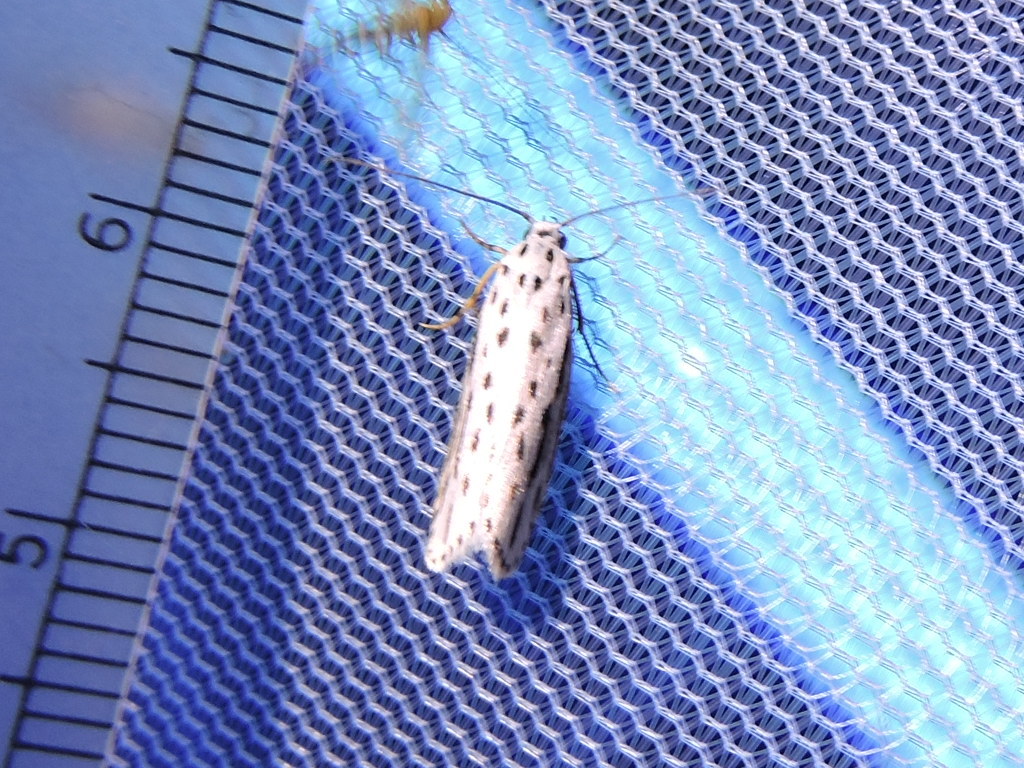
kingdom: Animalia
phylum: Arthropoda
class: Insecta
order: Lepidoptera
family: Ethmiidae
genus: Ethmia
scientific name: Ethmia zelleriella
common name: Zeller's ethmia
